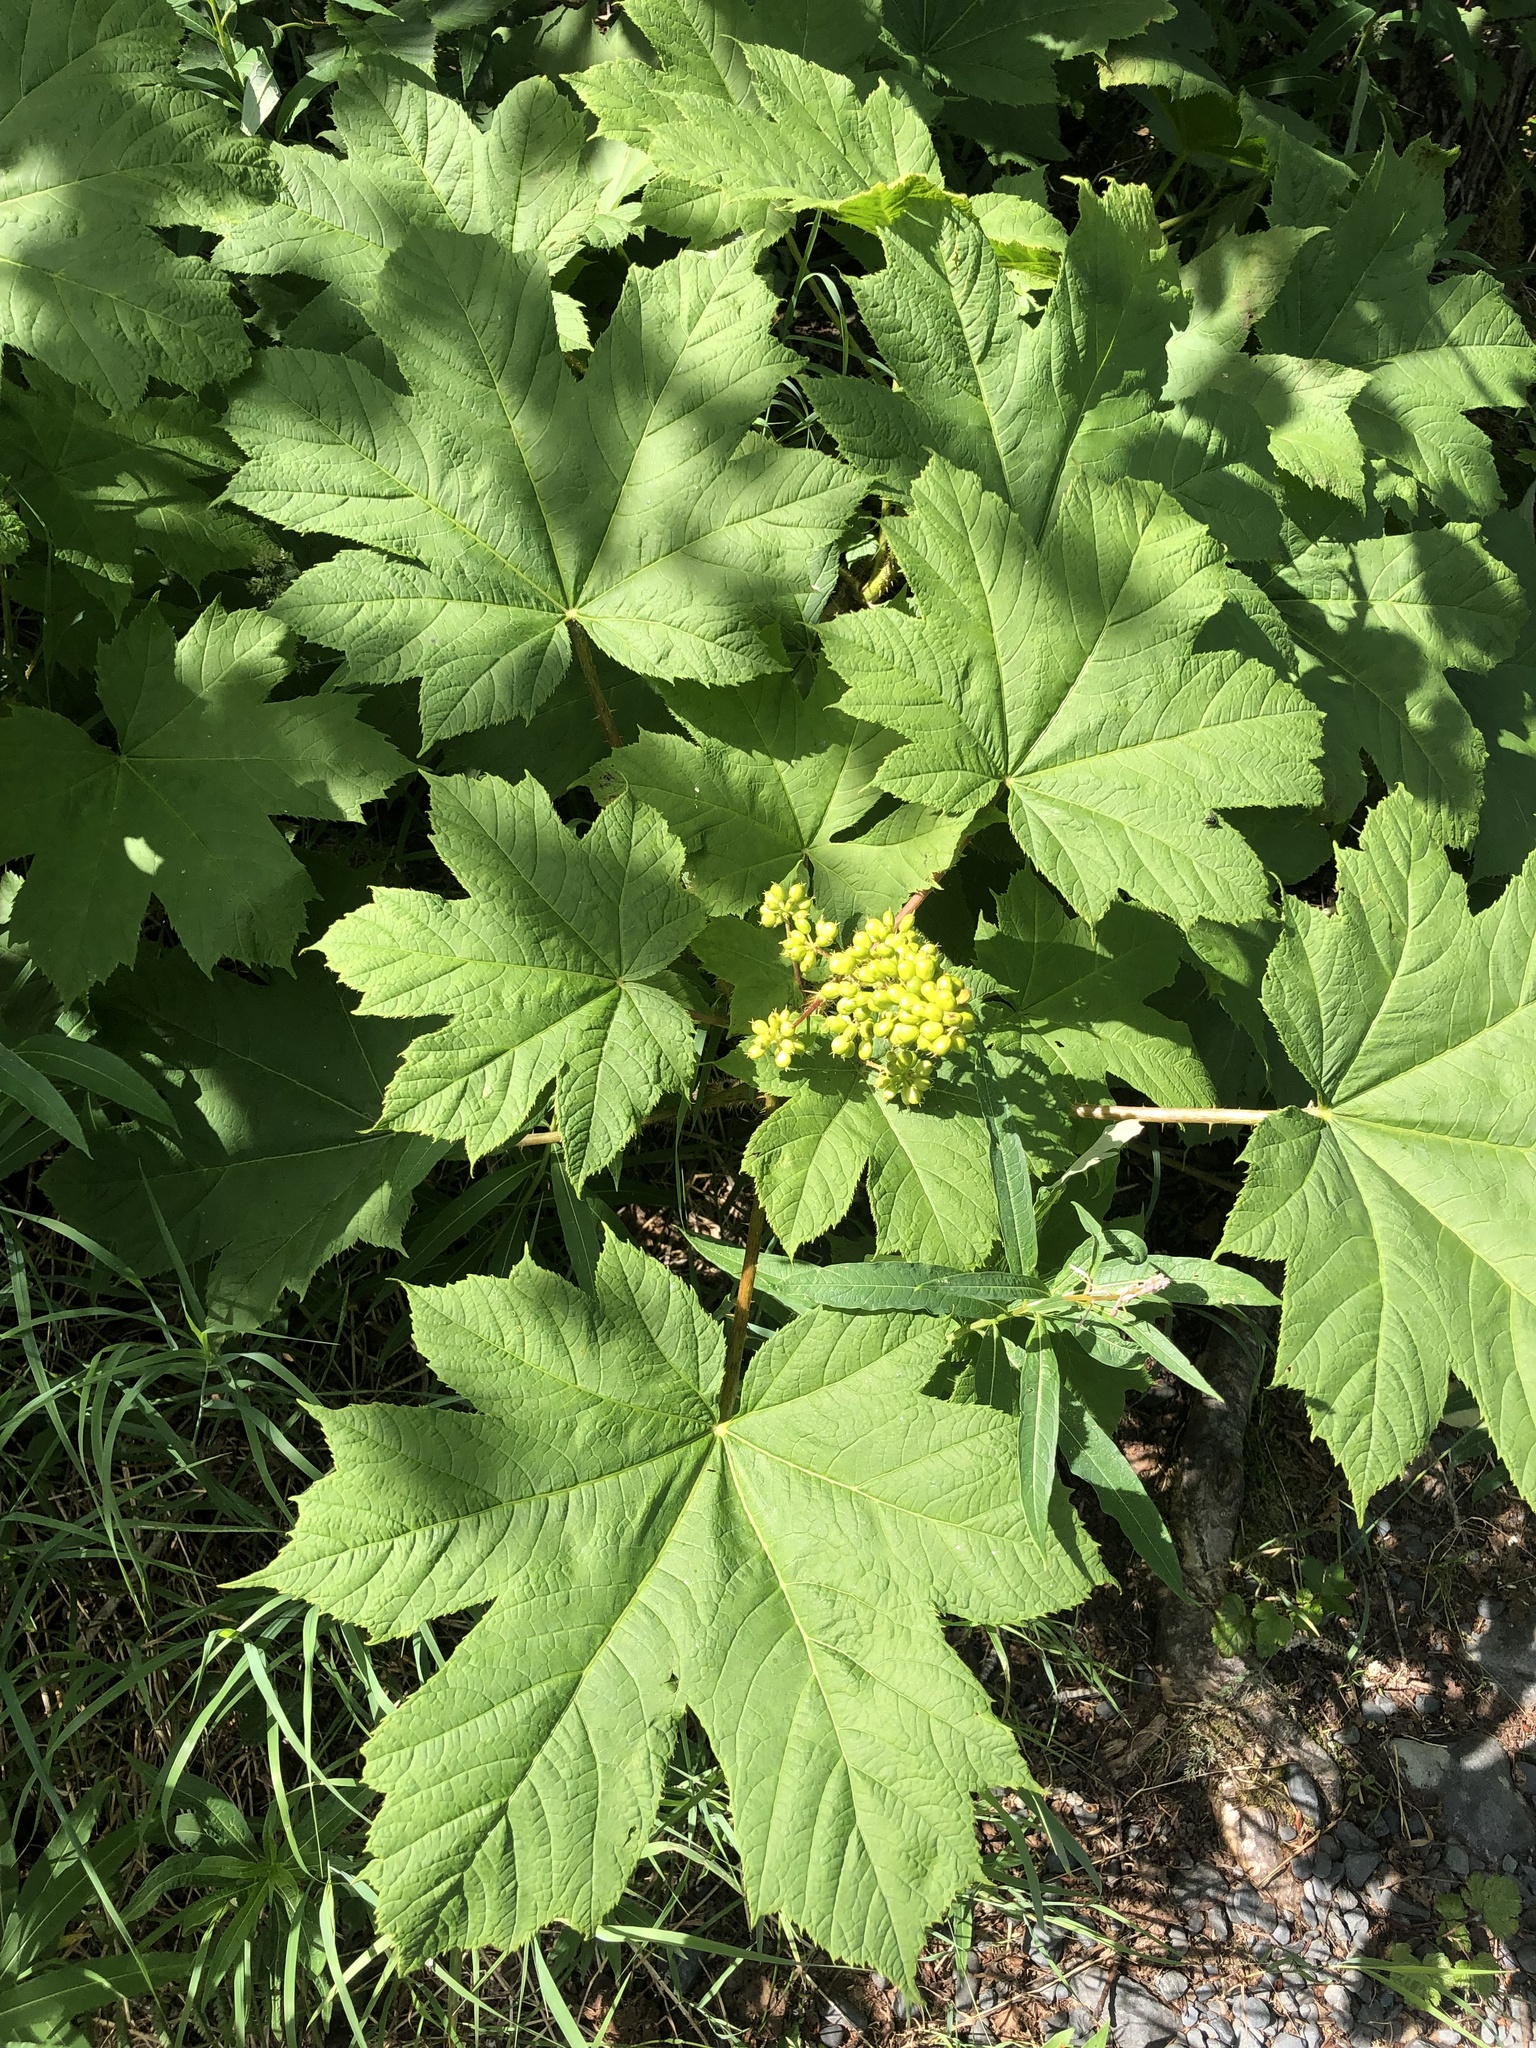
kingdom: Plantae
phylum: Tracheophyta
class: Magnoliopsida
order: Apiales
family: Araliaceae
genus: Oplopanax
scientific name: Oplopanax horridus
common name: Devil's walking-stick
